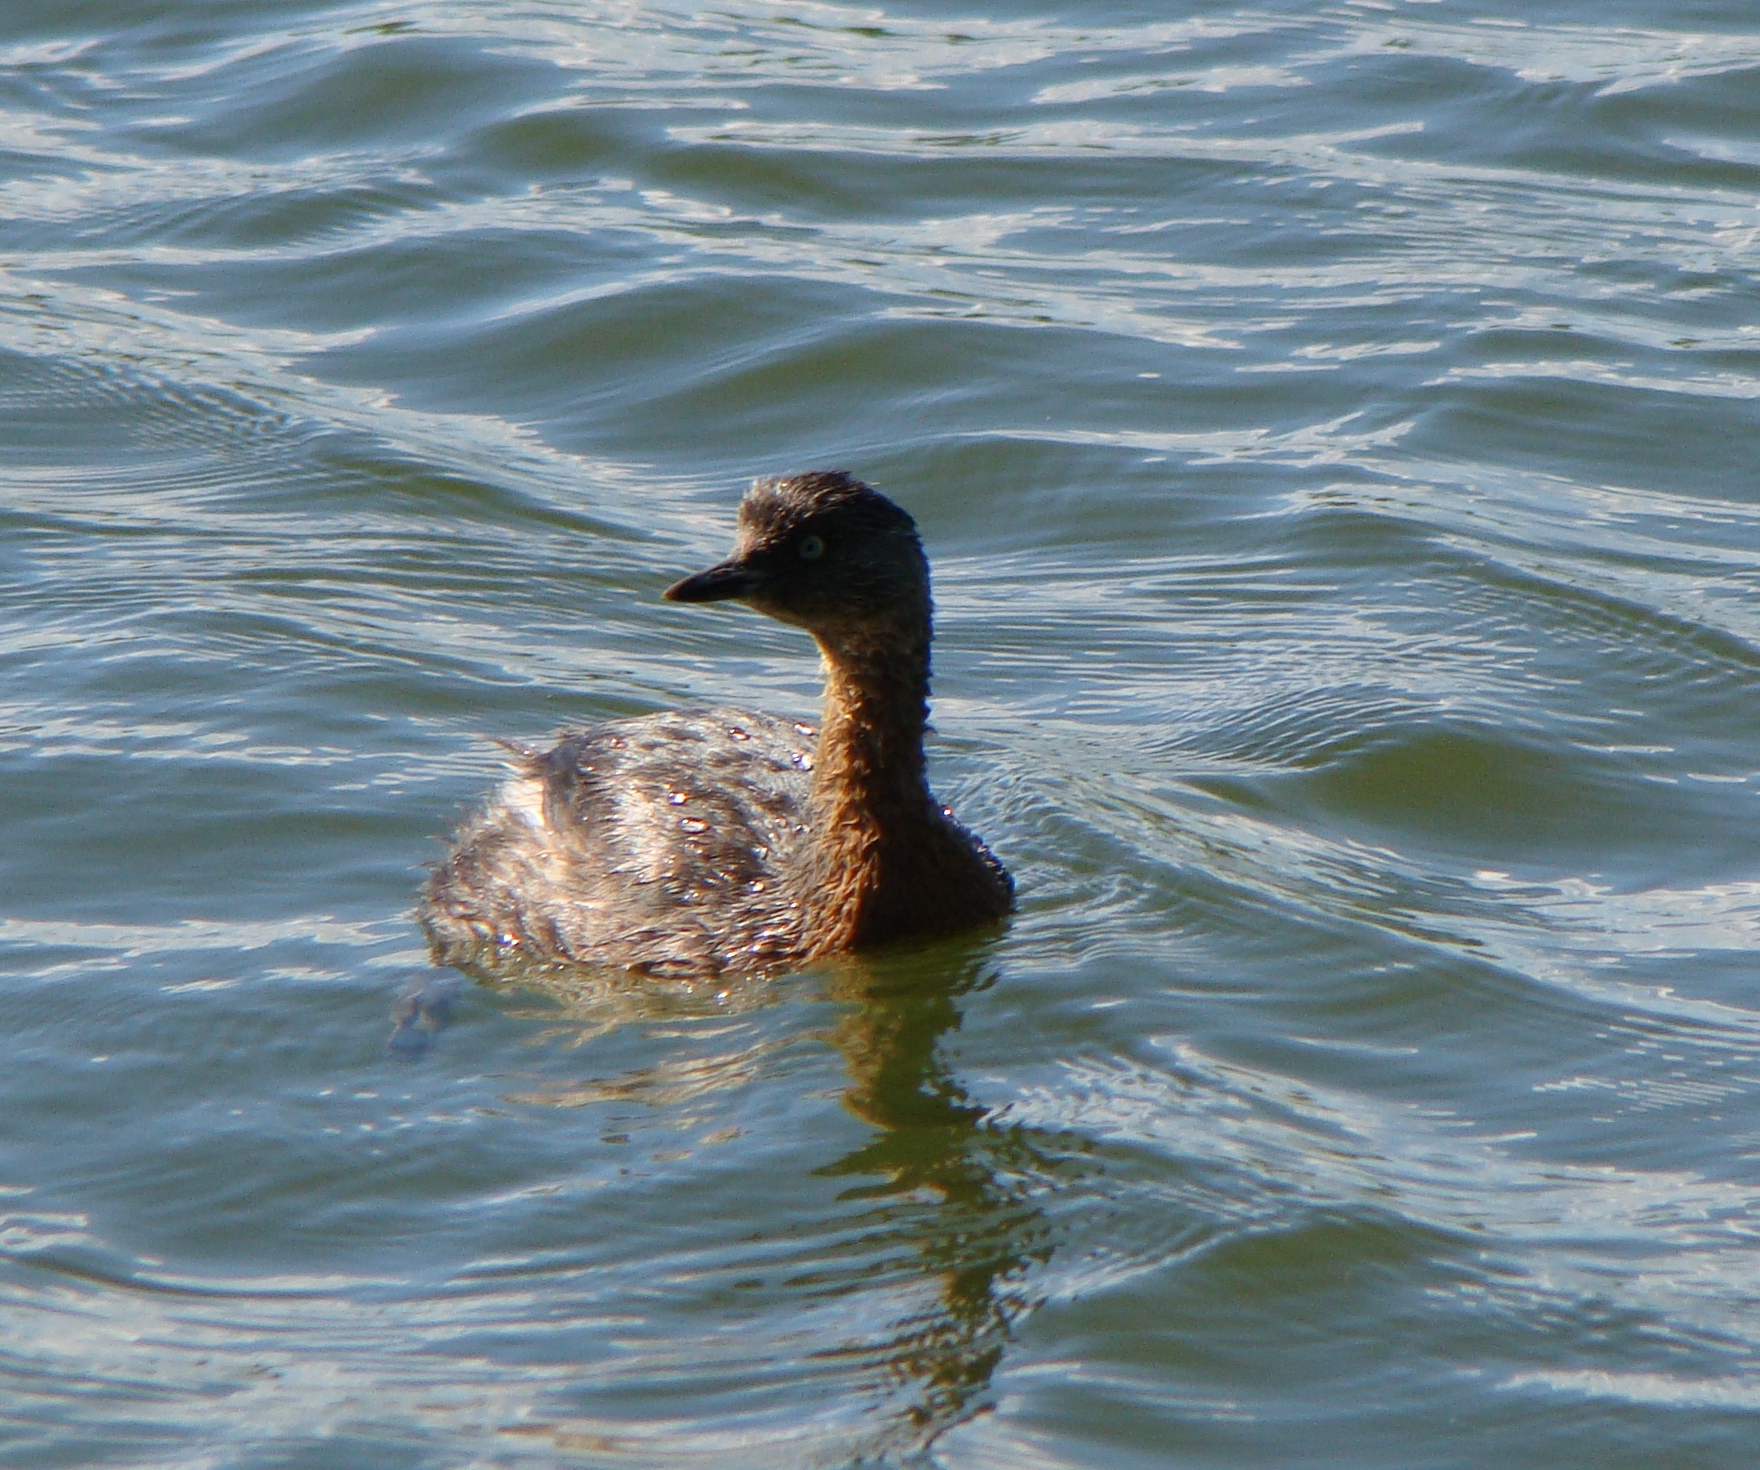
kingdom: Animalia
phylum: Chordata
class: Aves
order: Podicipediformes
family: Podicipedidae
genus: Poliocephalus
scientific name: Poliocephalus rufopectus
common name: New zealand grebe
